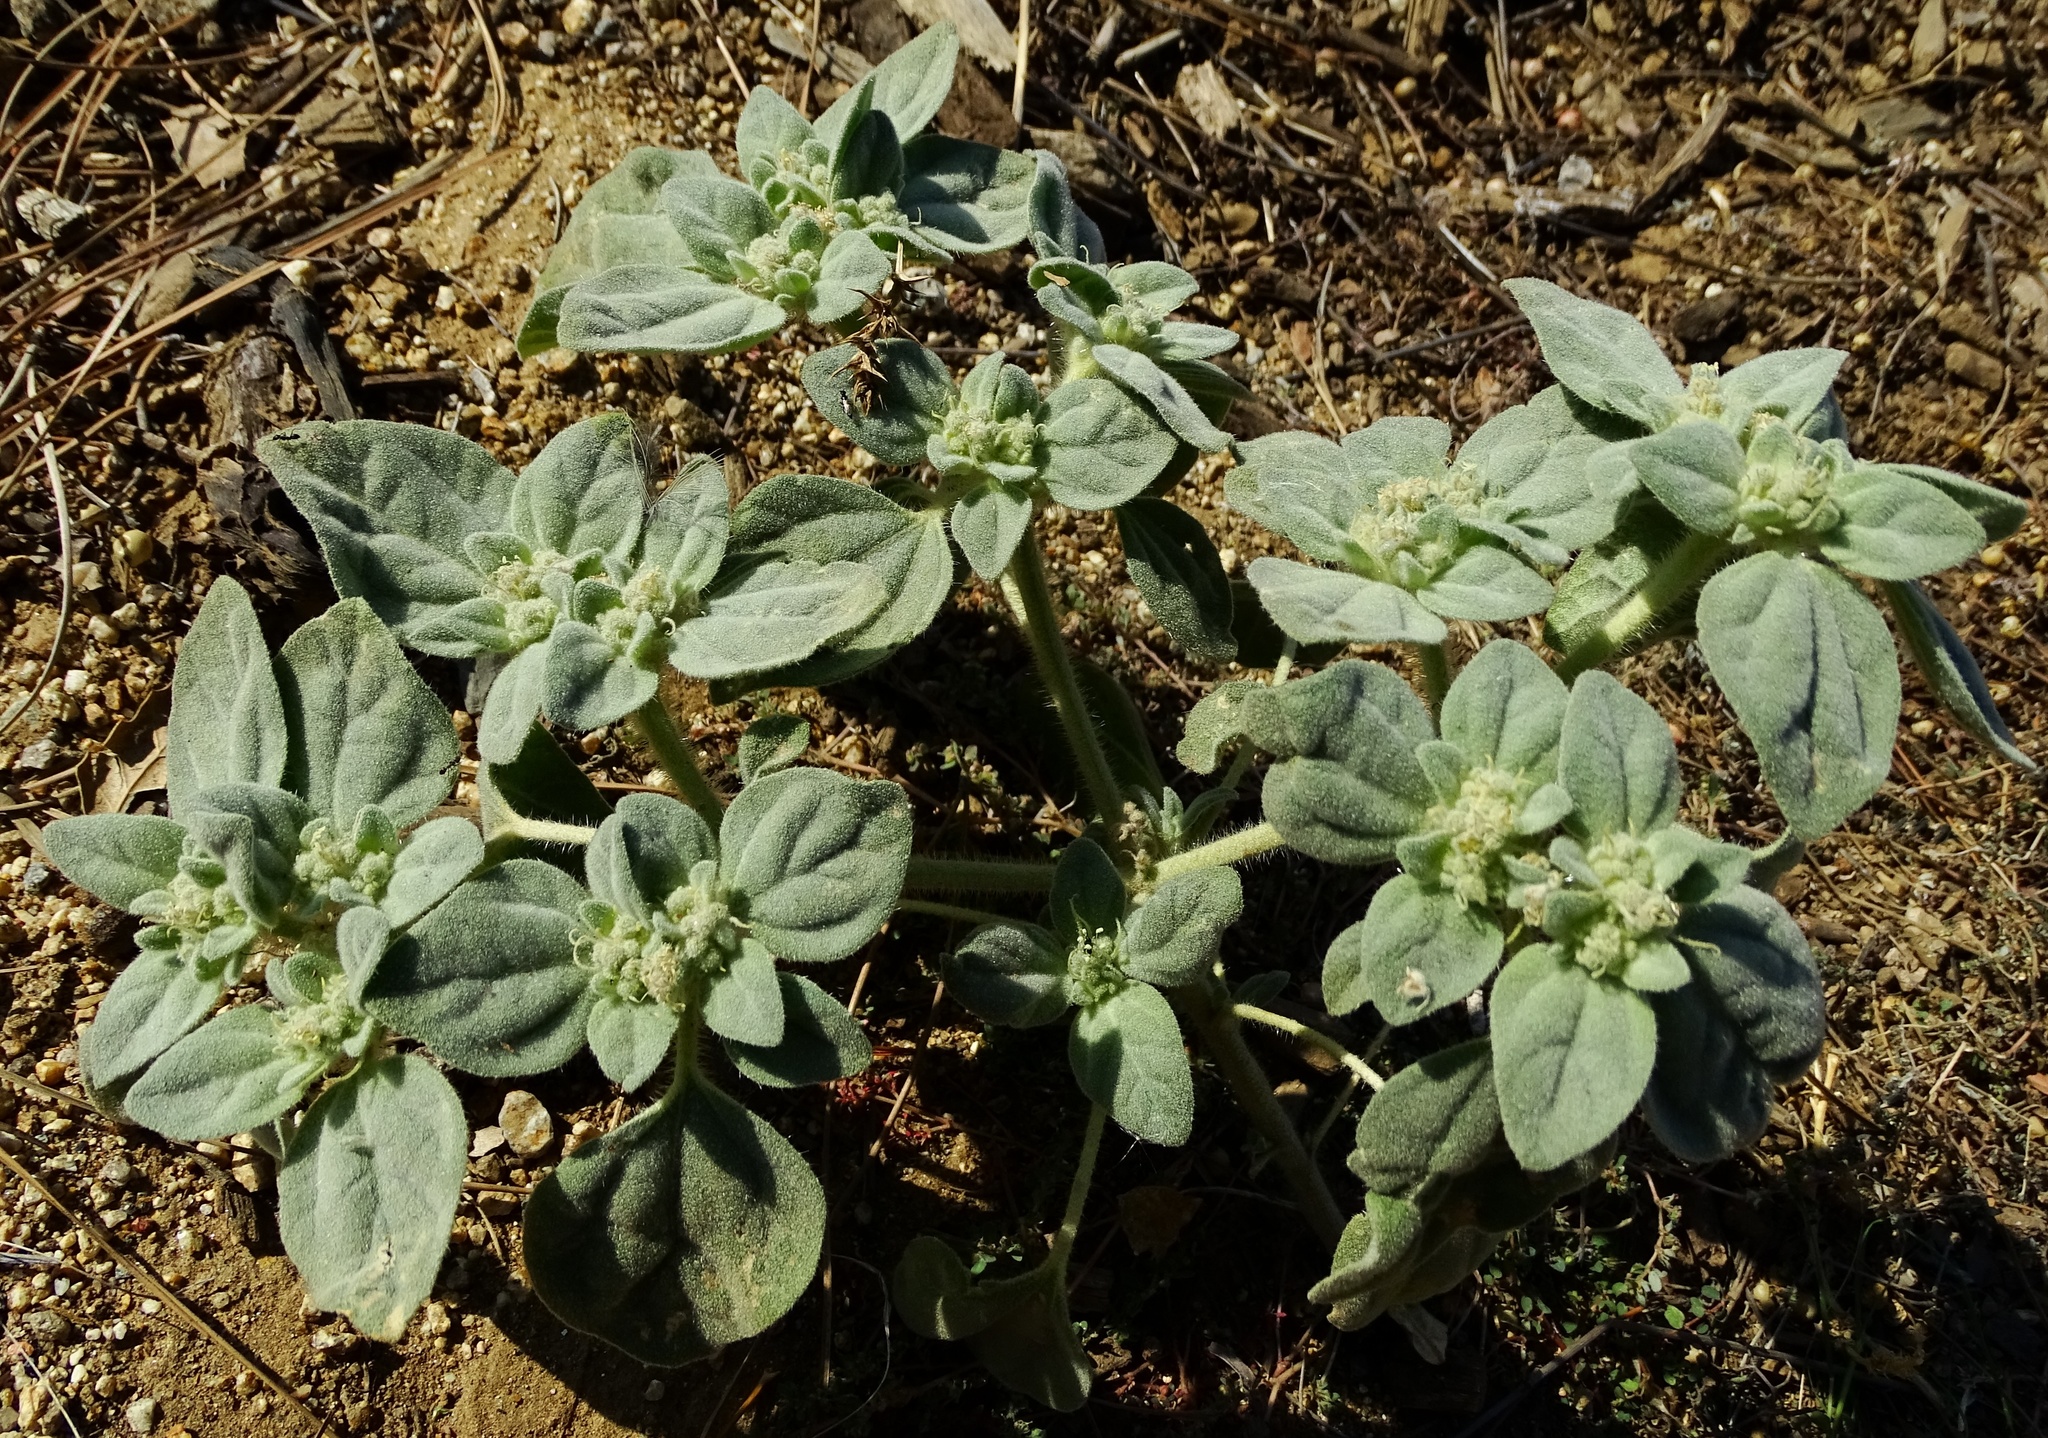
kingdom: Plantae
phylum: Tracheophyta
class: Magnoliopsida
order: Malpighiales
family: Euphorbiaceae
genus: Croton
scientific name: Croton setiger
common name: Dove weed
